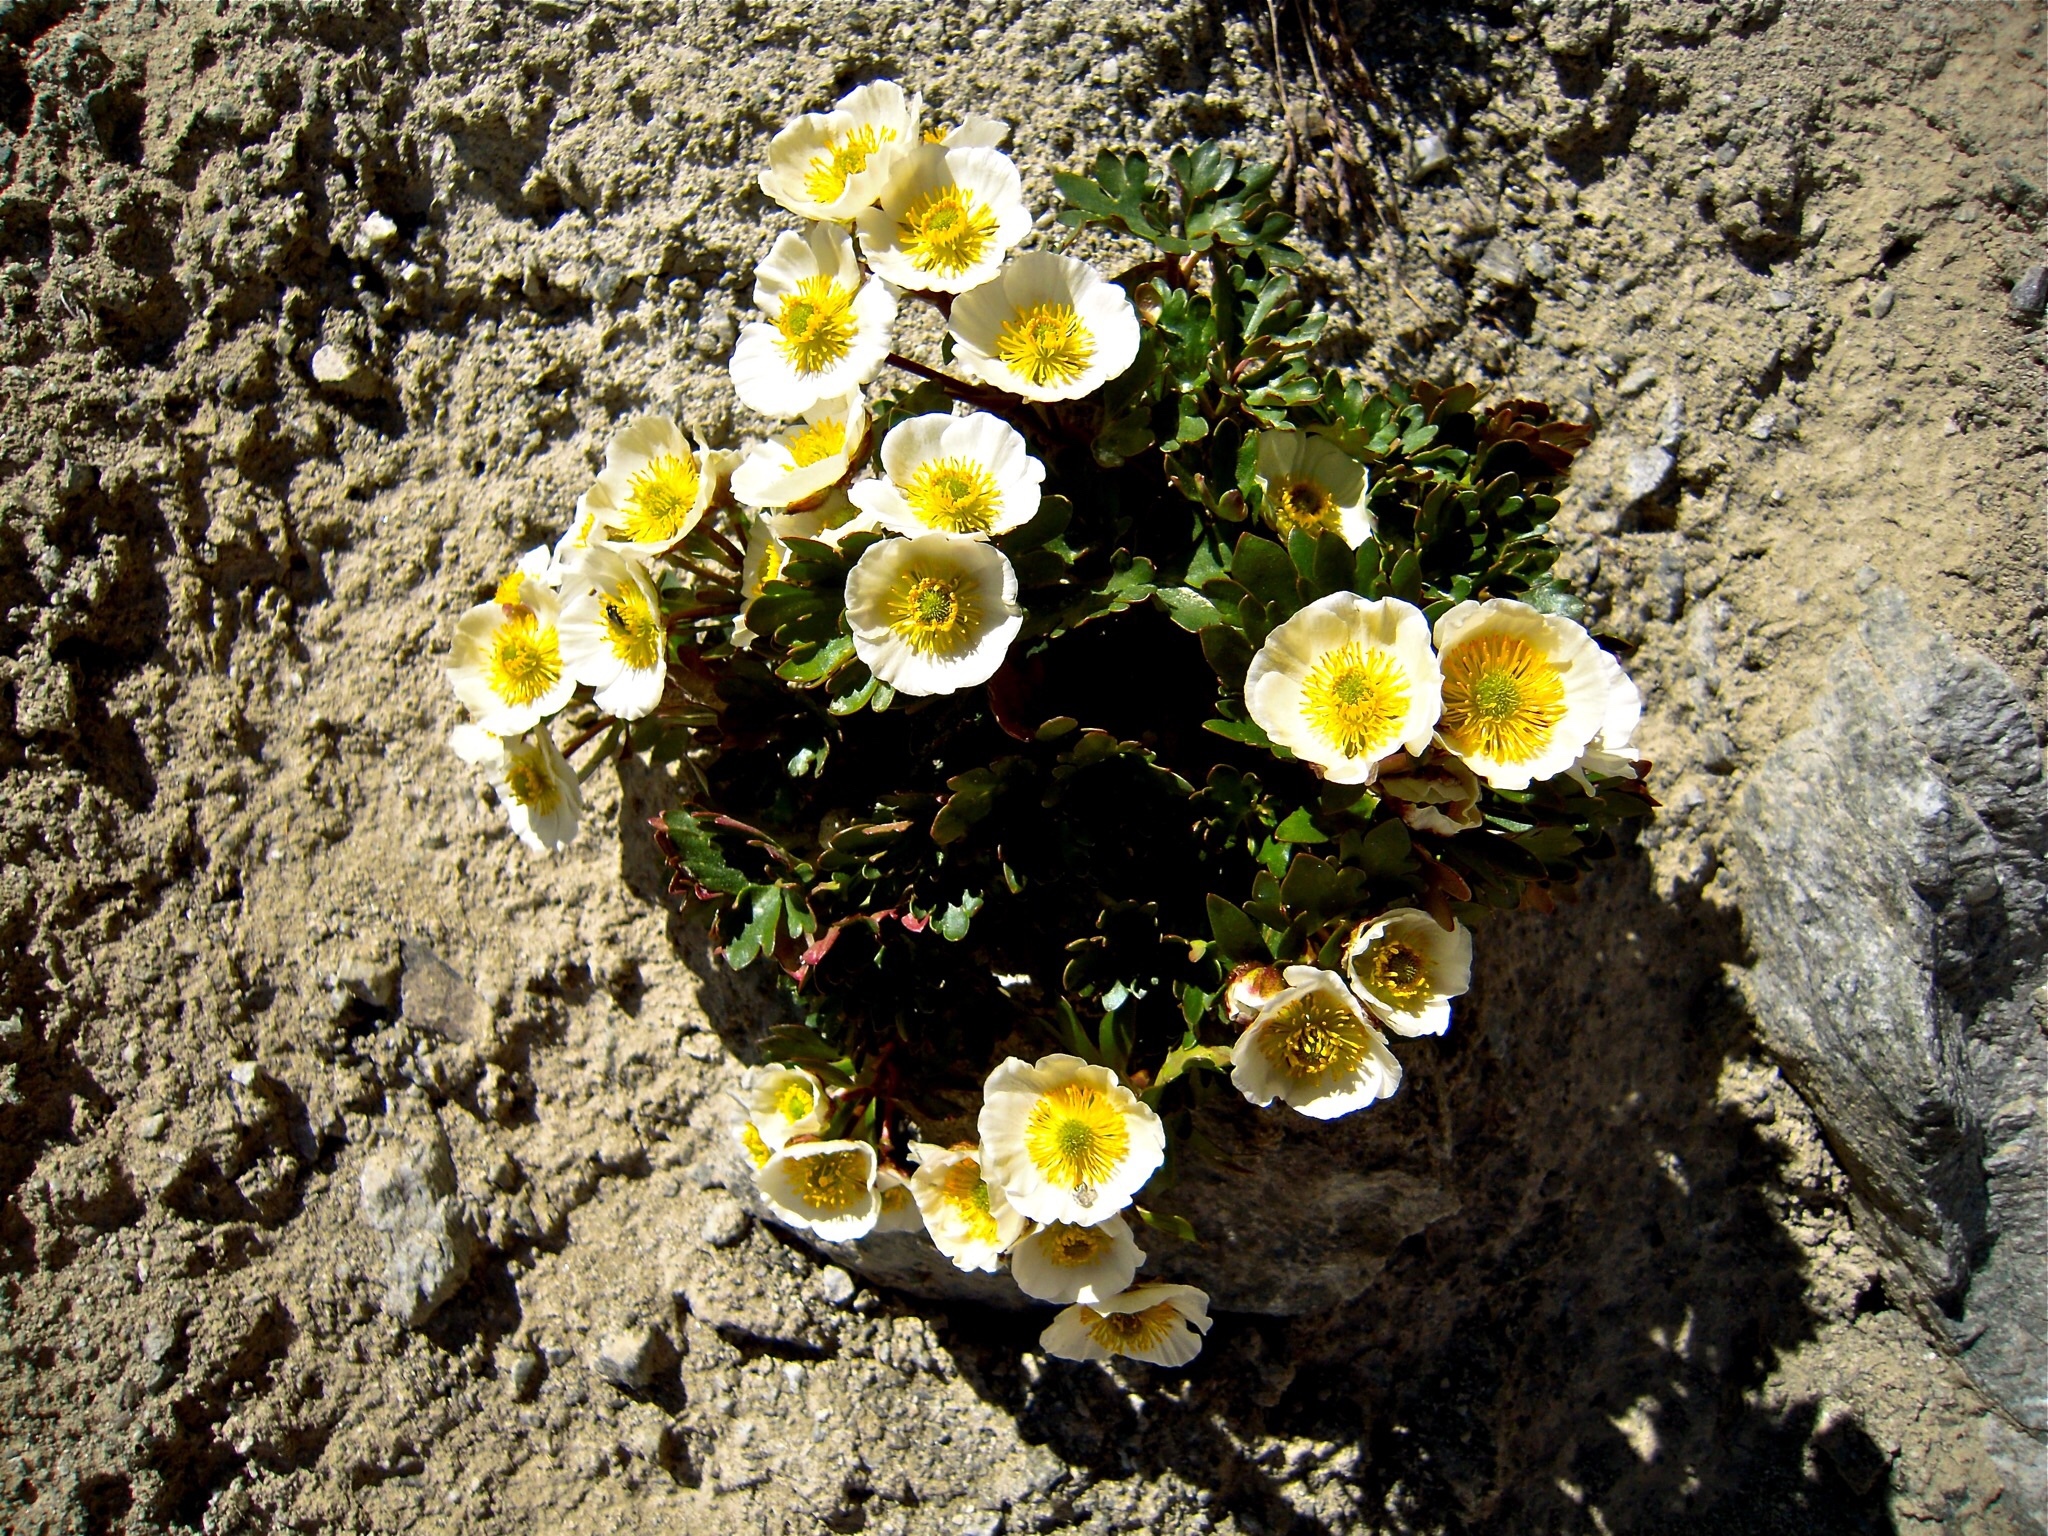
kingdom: Plantae
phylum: Tracheophyta
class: Magnoliopsida
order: Ranunculales
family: Ranunculaceae
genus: Ranunculus
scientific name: Ranunculus glacialis
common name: Glacier buttercup
